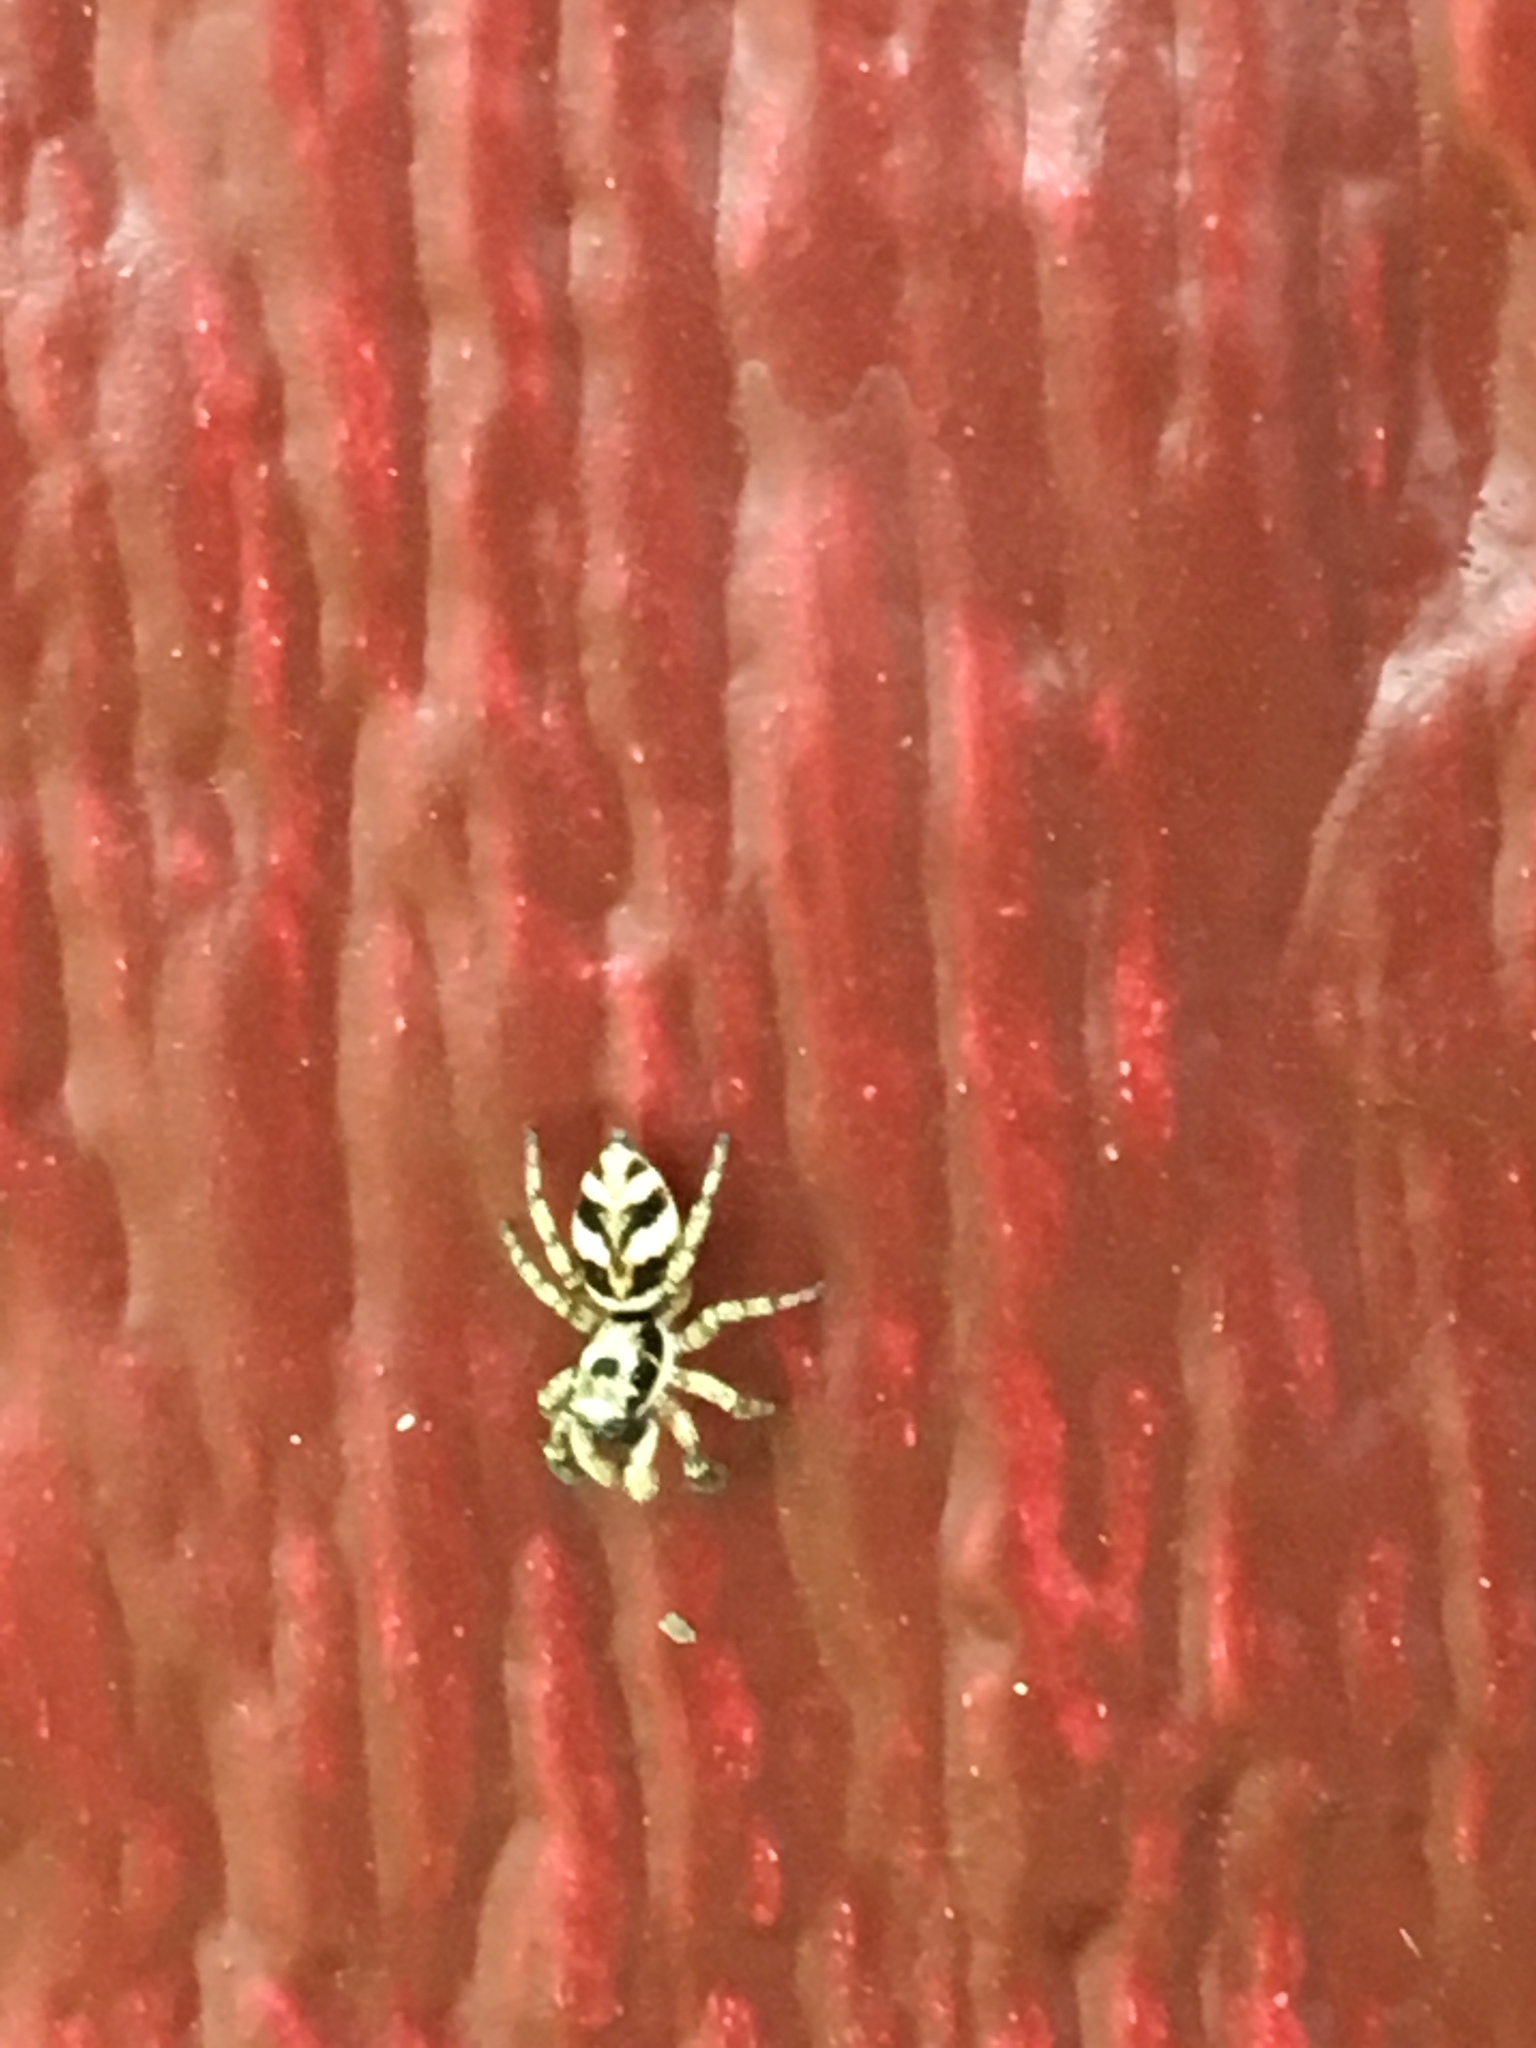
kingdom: Animalia
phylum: Arthropoda
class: Arachnida
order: Araneae
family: Salticidae
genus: Salticus
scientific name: Salticus scenicus
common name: Zebra jumper
